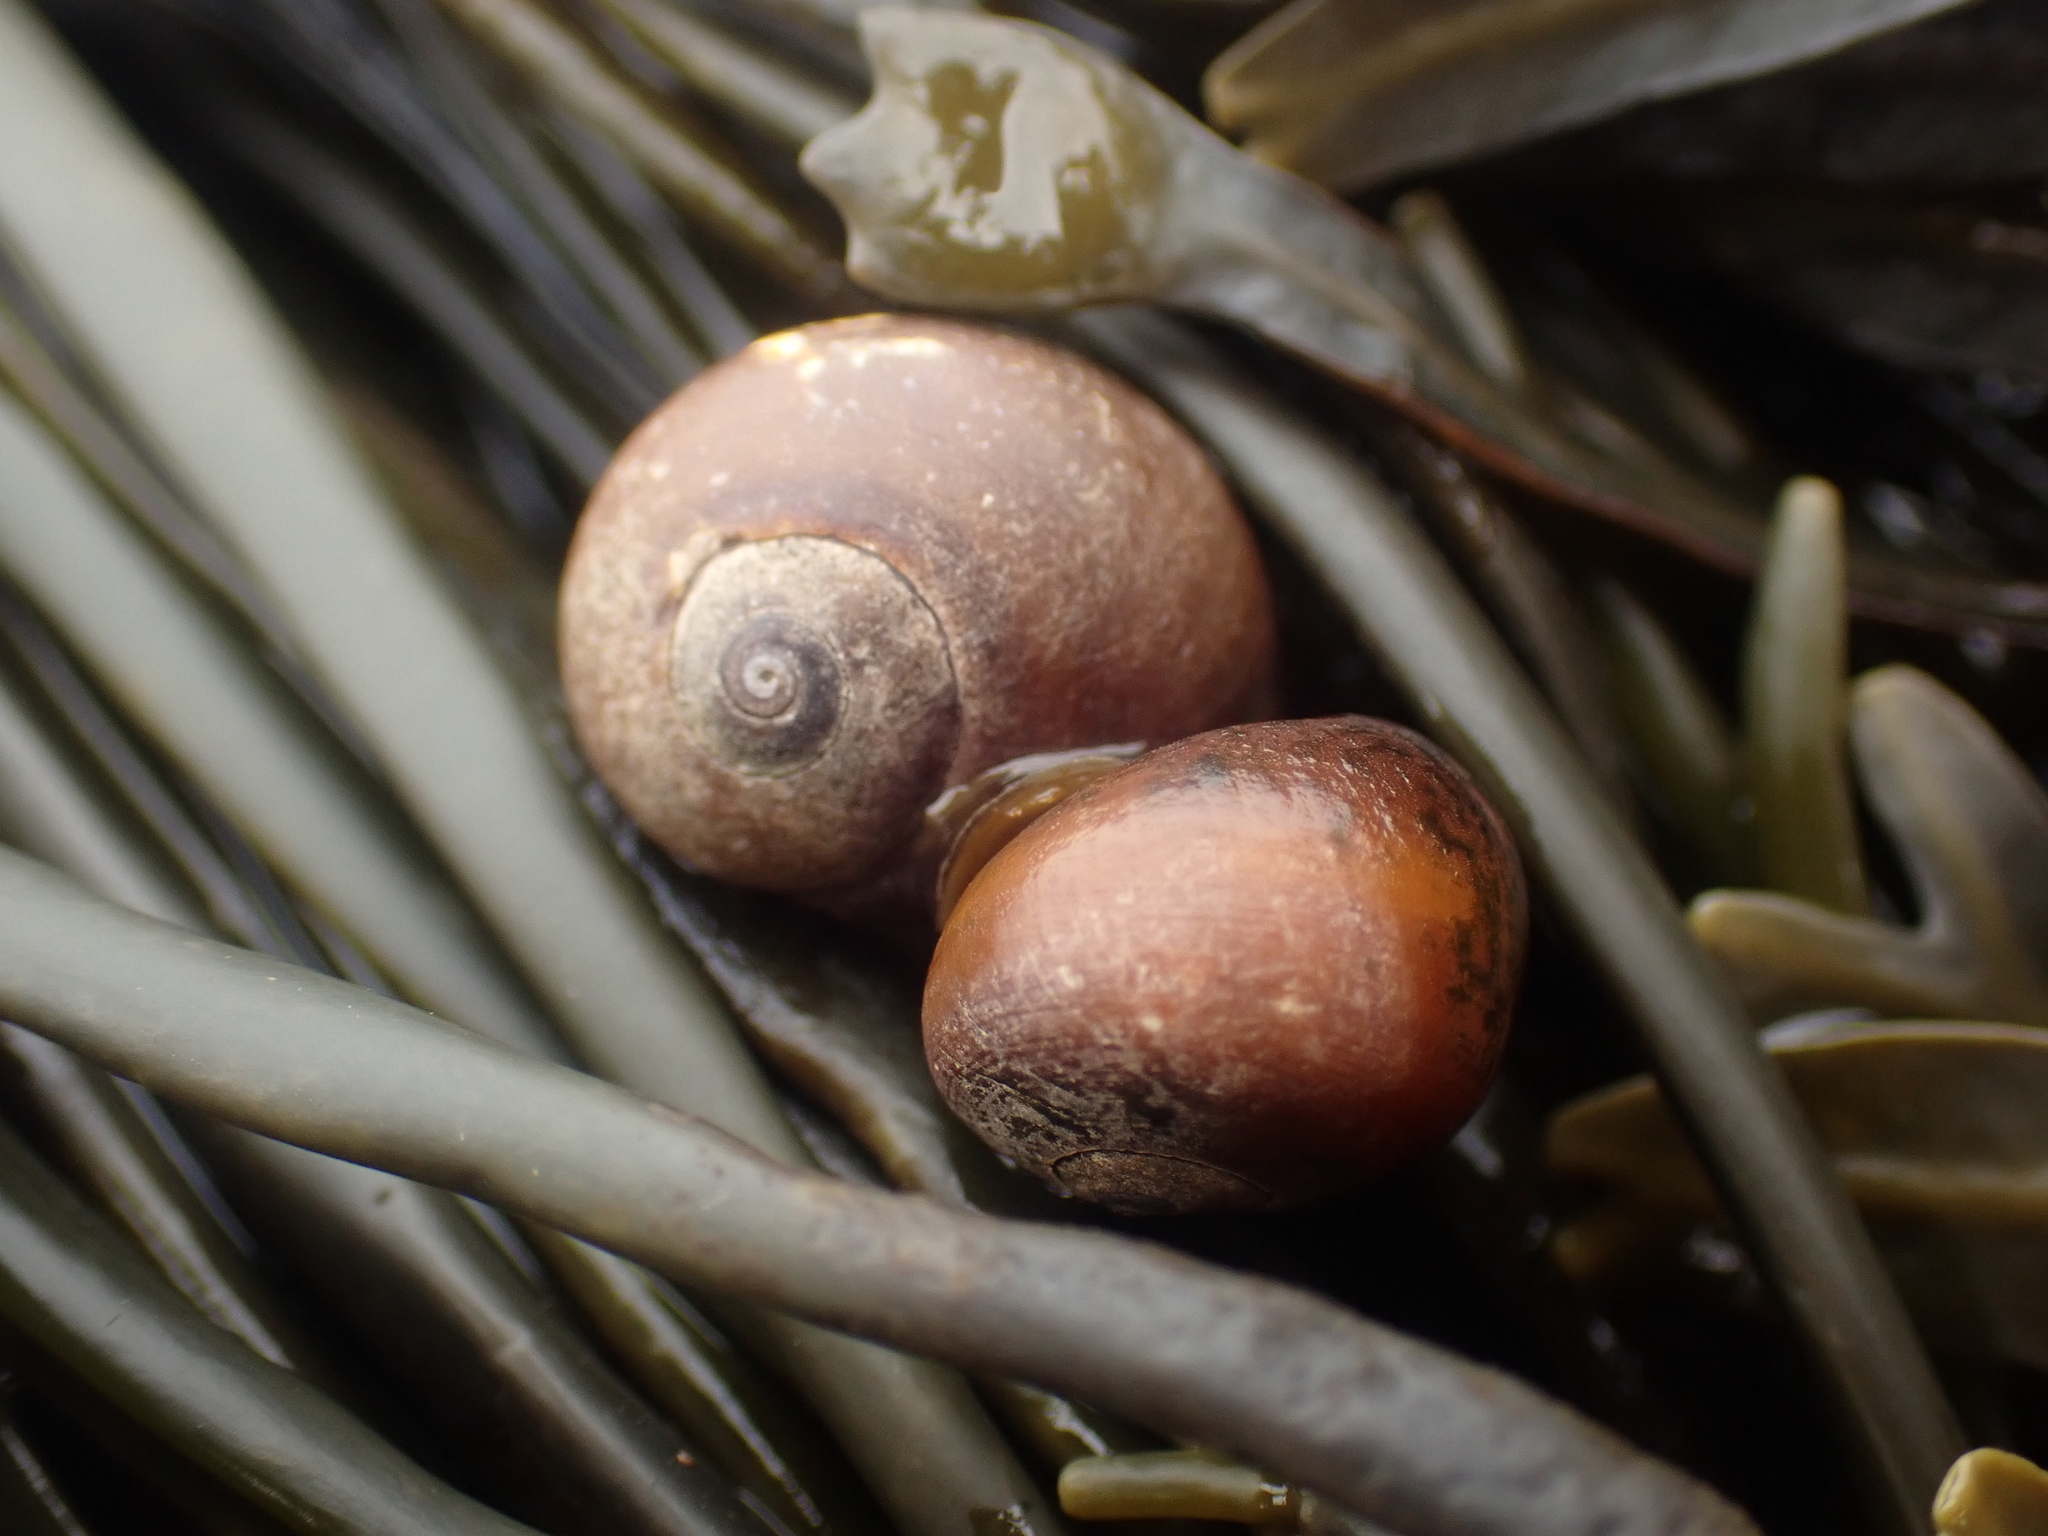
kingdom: Animalia
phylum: Mollusca
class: Gastropoda
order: Littorinimorpha
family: Littorinidae
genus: Littorina
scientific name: Littorina obtusata
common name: Flat periwinkle
